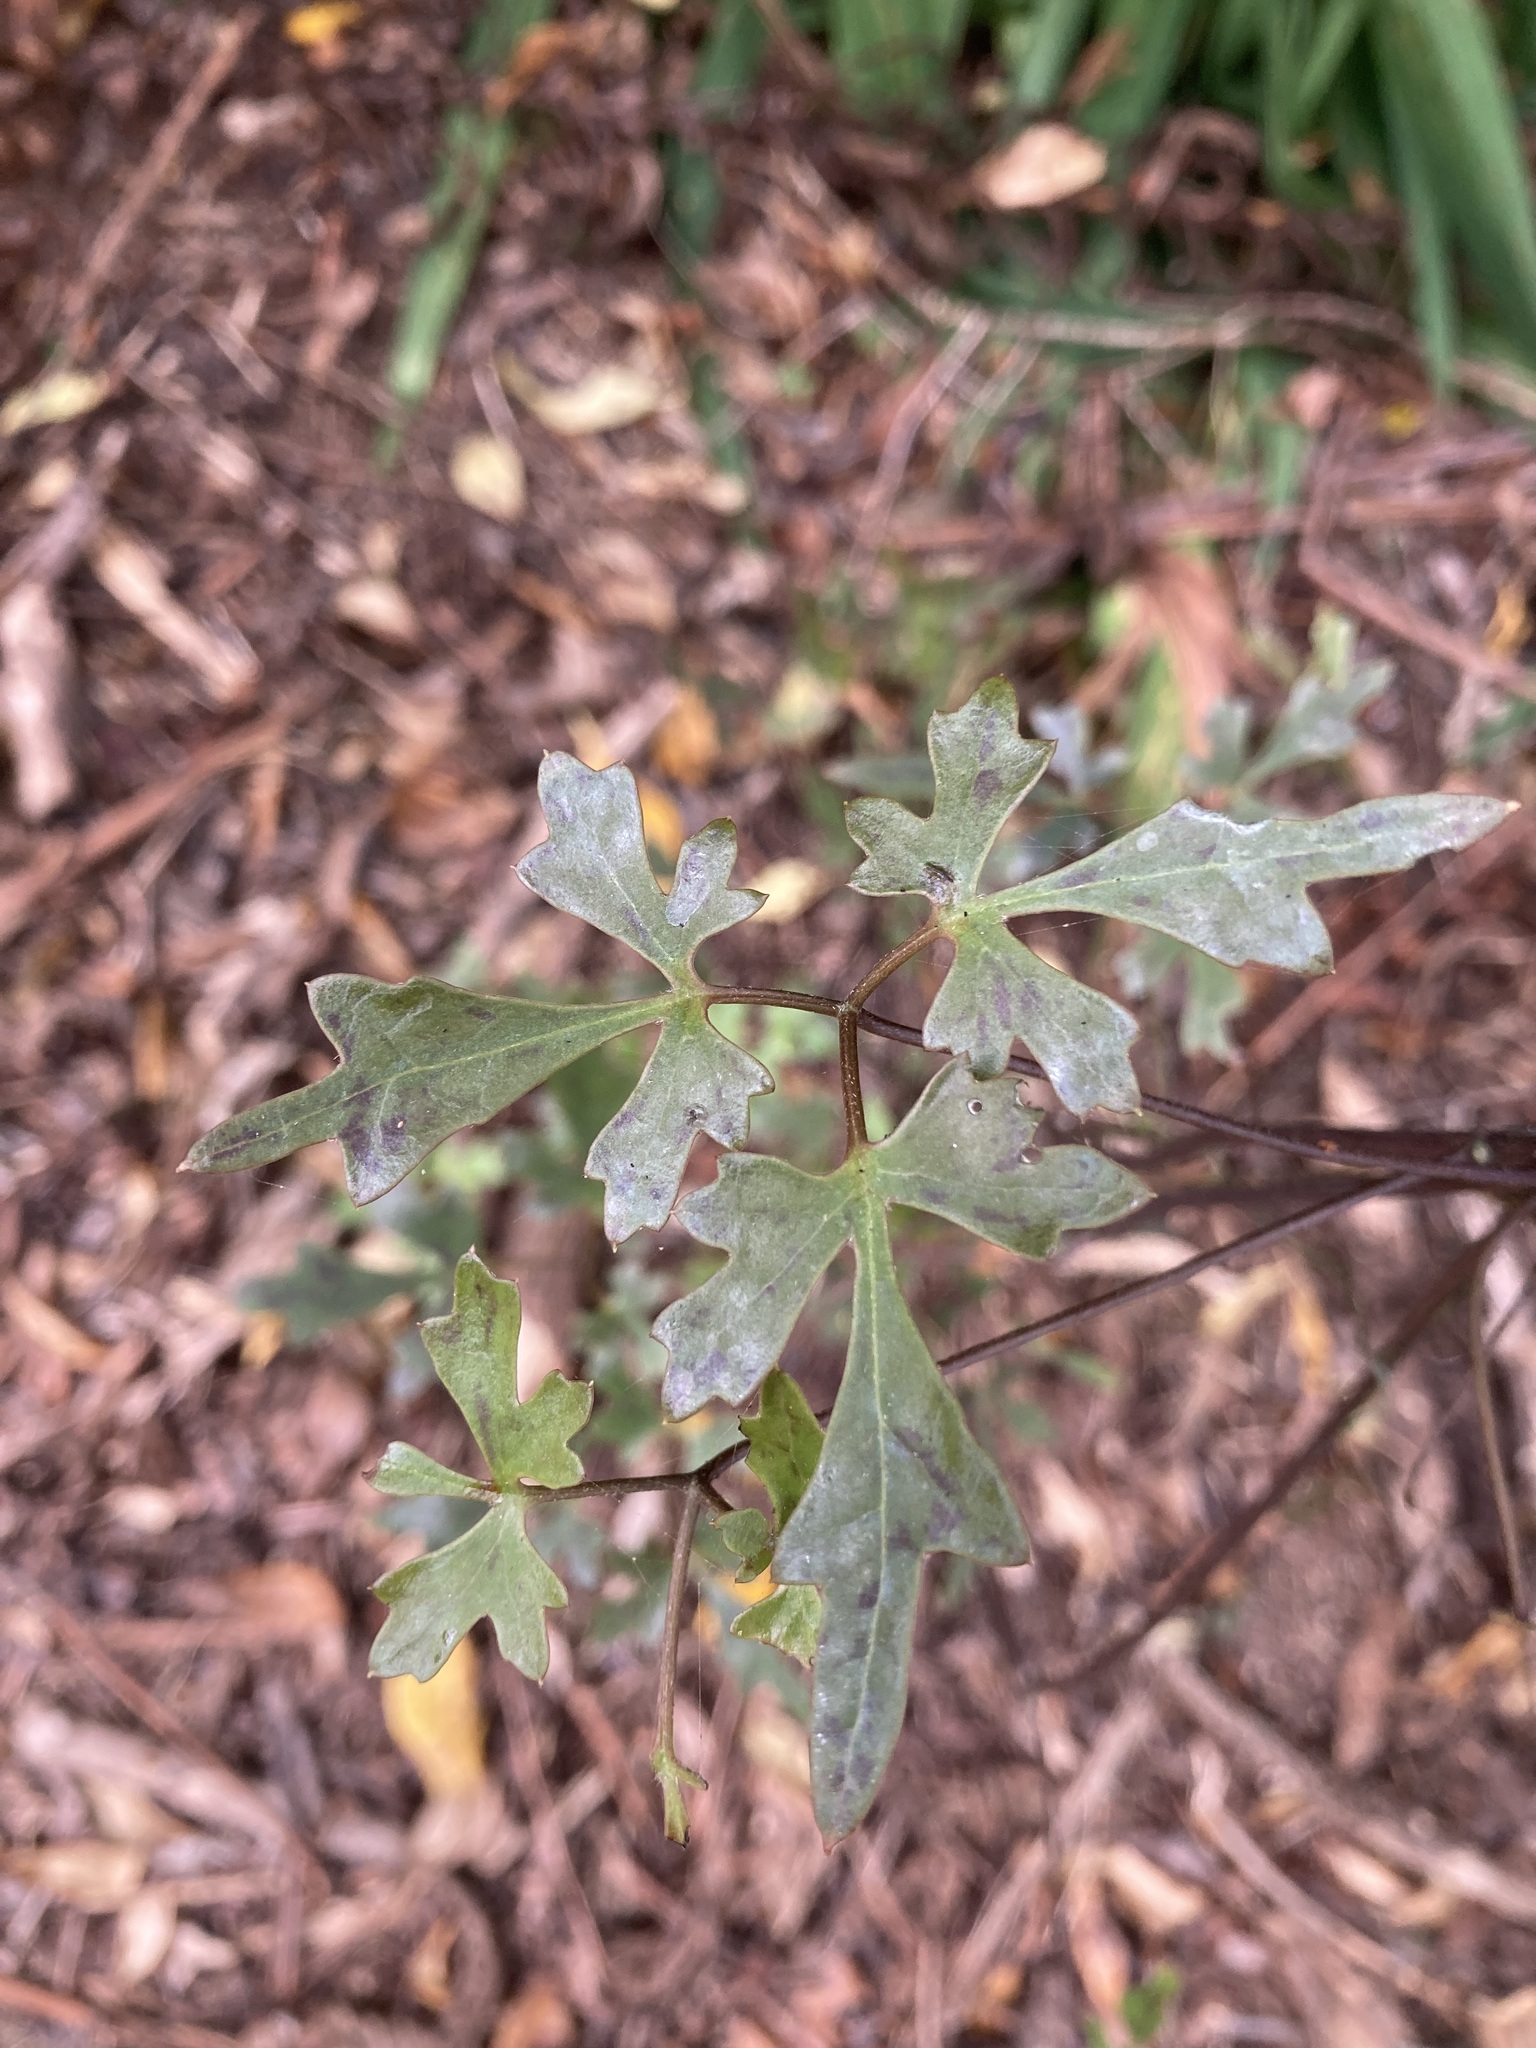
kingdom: Plantae
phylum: Tracheophyta
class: Magnoliopsida
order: Ranunculales
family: Ranunculaceae
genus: Clematis
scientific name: Clematis forsteri
